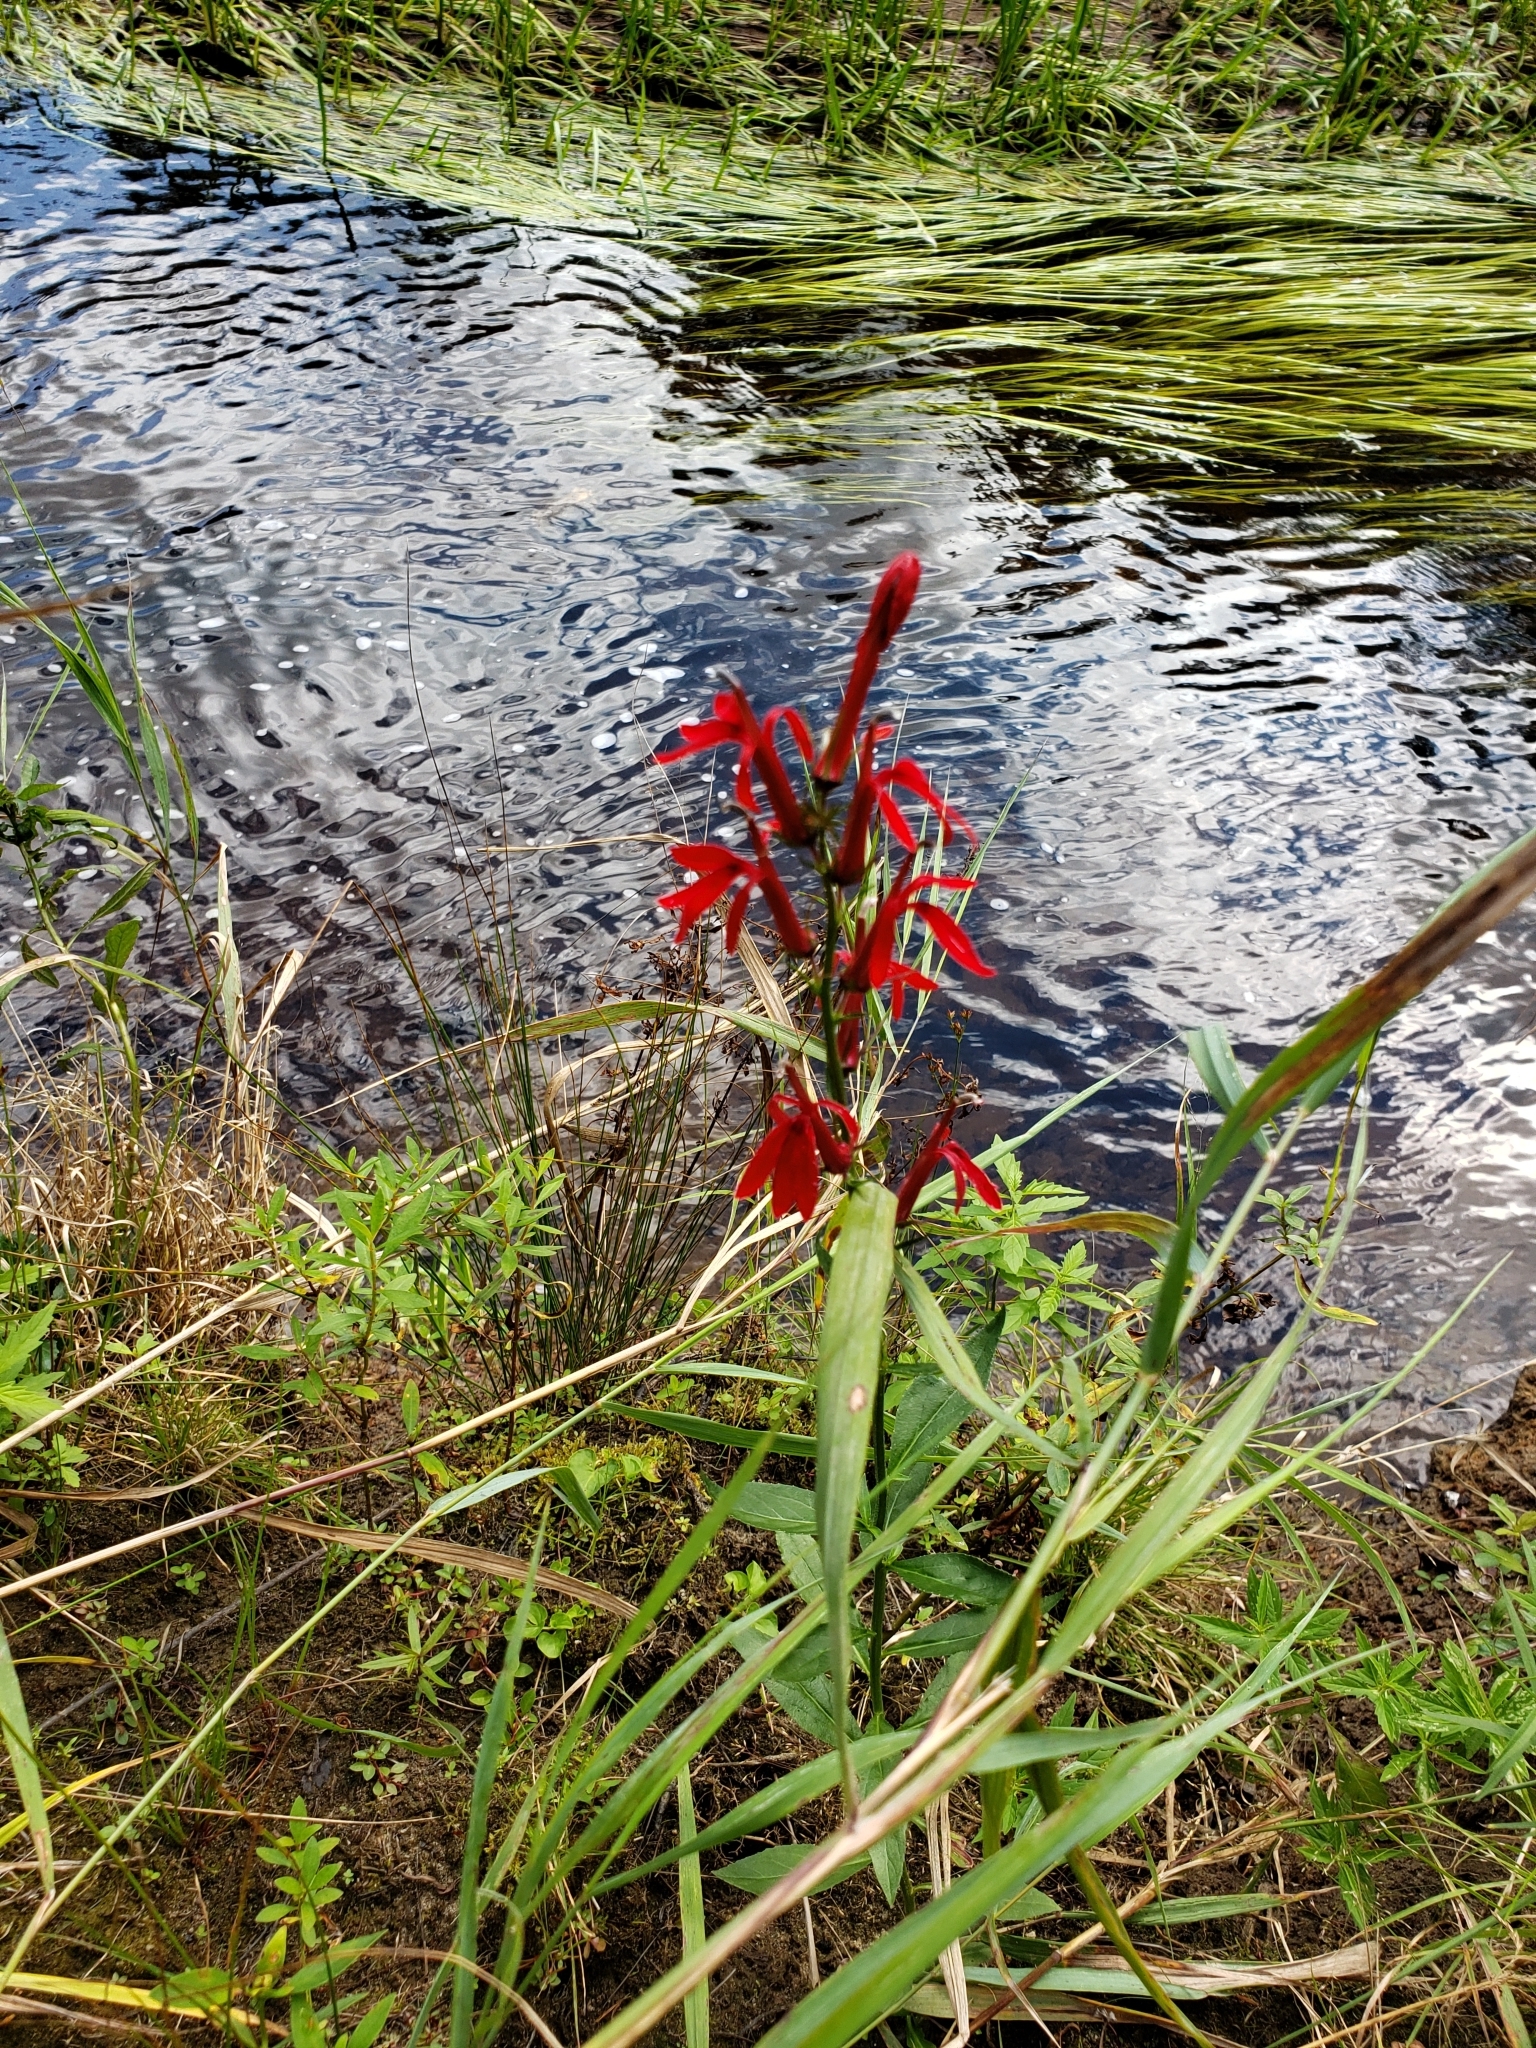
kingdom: Plantae
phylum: Tracheophyta
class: Magnoliopsida
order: Asterales
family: Campanulaceae
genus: Lobelia
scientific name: Lobelia cardinalis
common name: Cardinal flower
